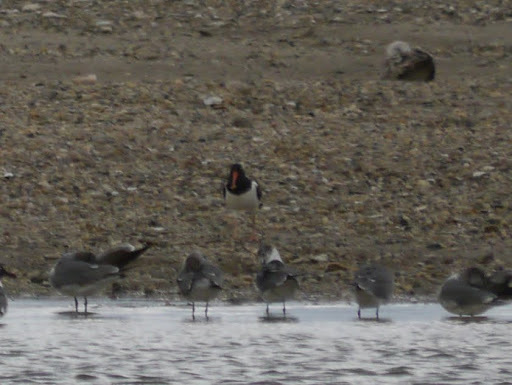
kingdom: Animalia
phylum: Chordata
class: Aves
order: Charadriiformes
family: Haematopodidae
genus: Haematopus
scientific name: Haematopus palliatus
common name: American oystercatcher
